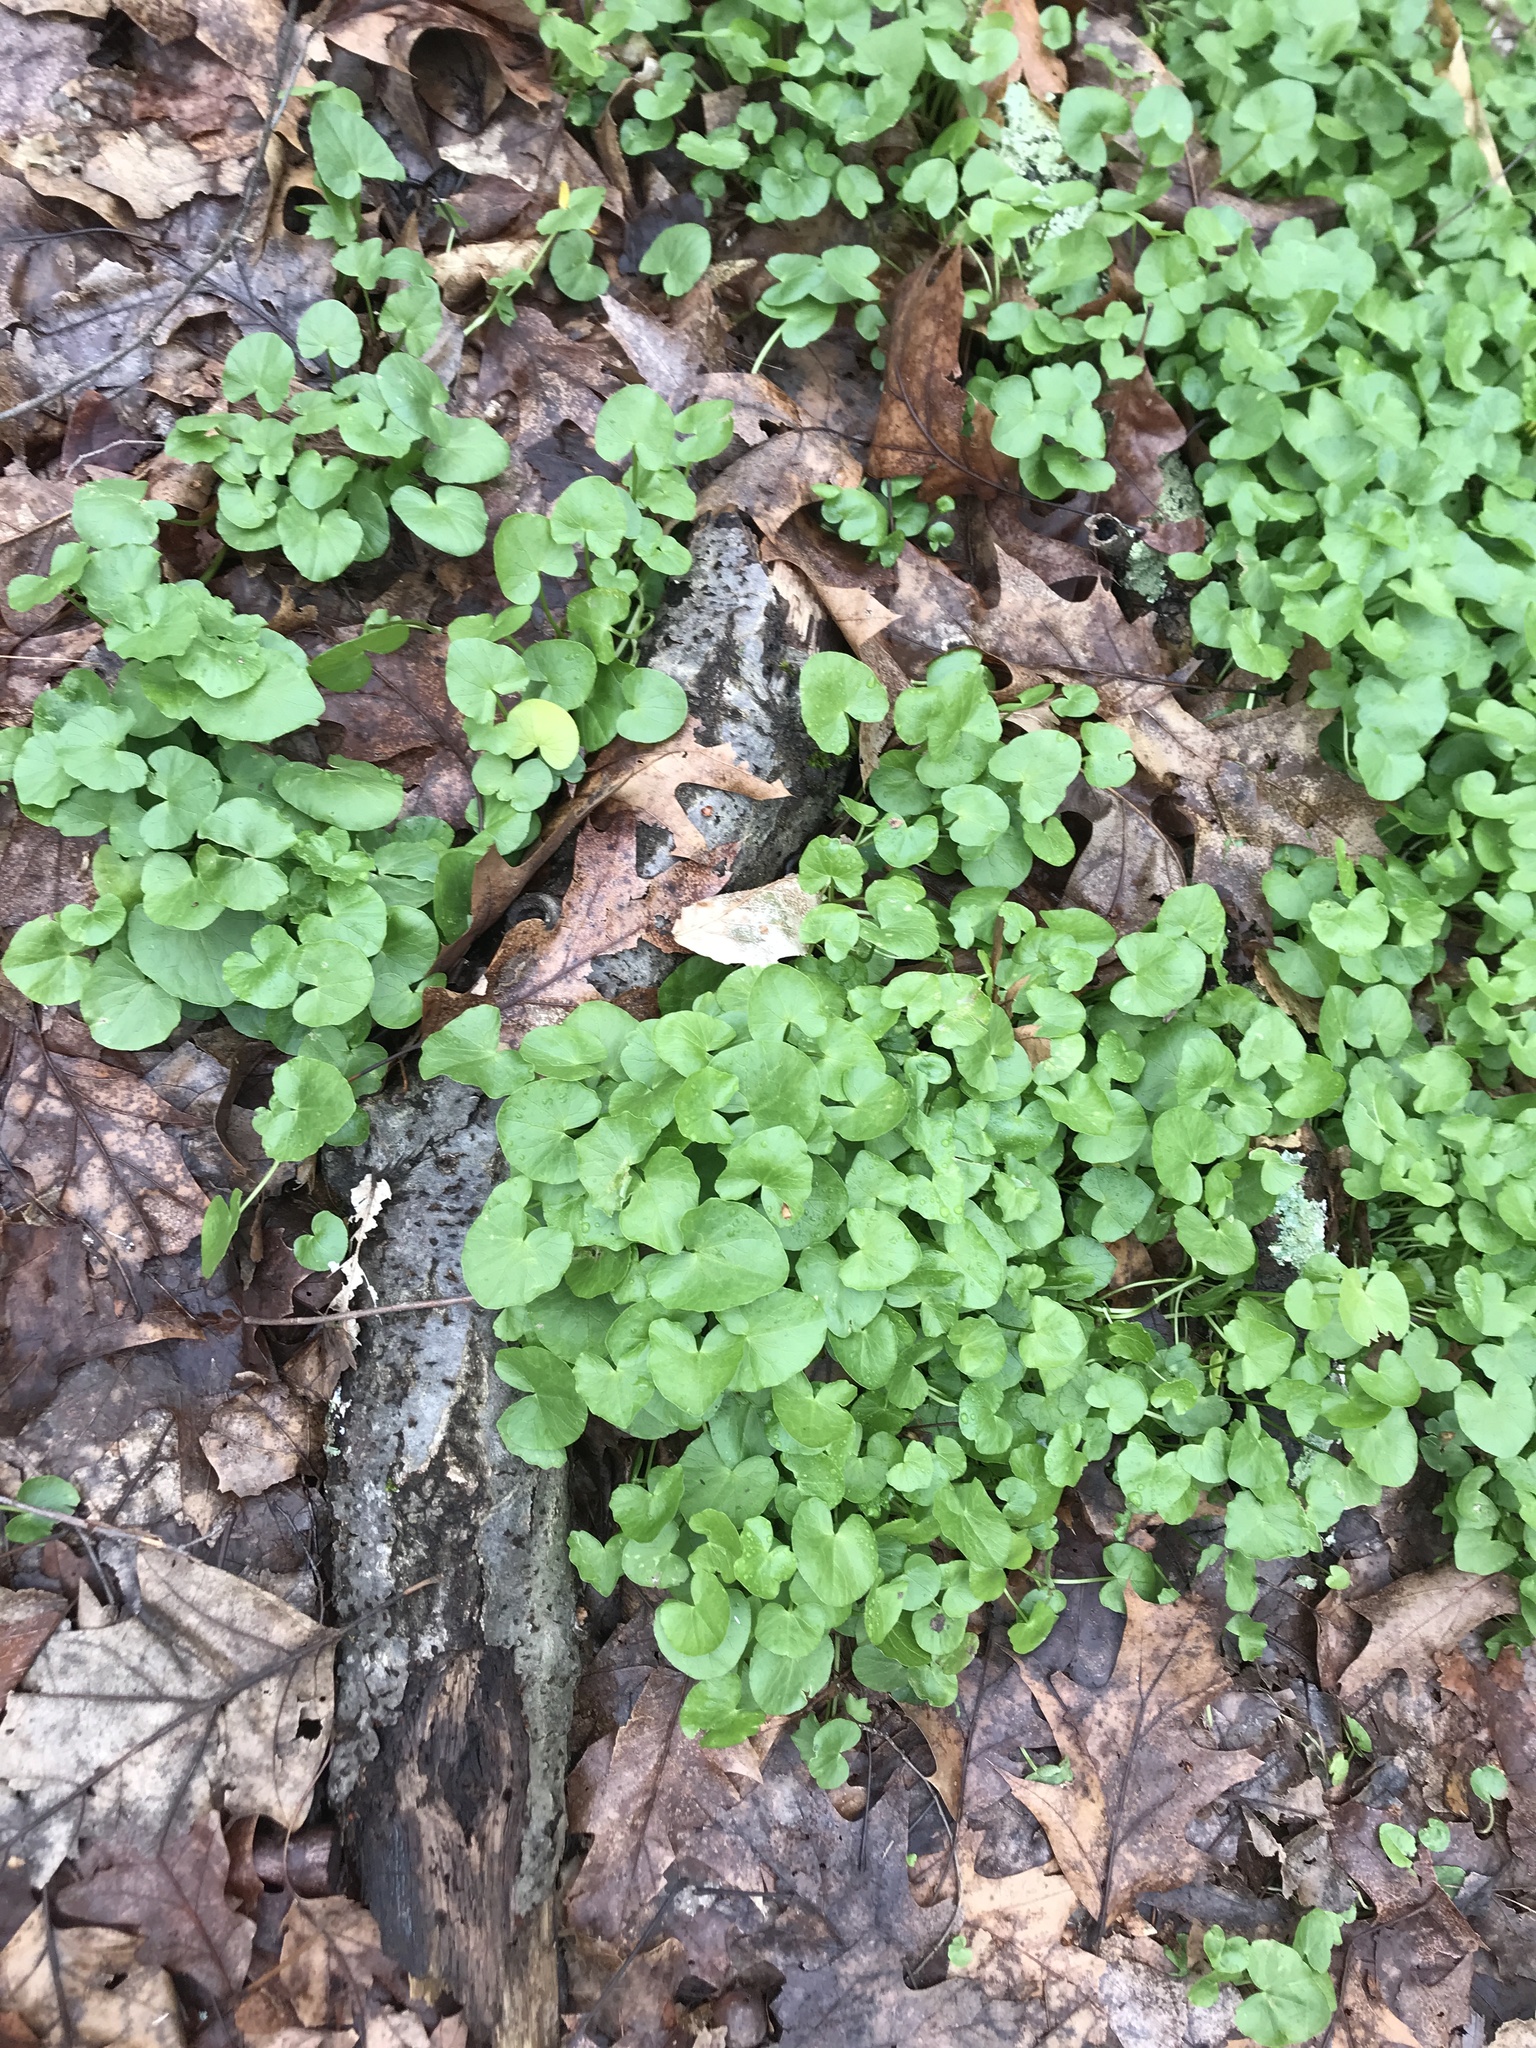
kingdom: Plantae
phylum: Tracheophyta
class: Magnoliopsida
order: Ranunculales
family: Ranunculaceae
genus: Ficaria
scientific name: Ficaria verna
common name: Lesser celandine
